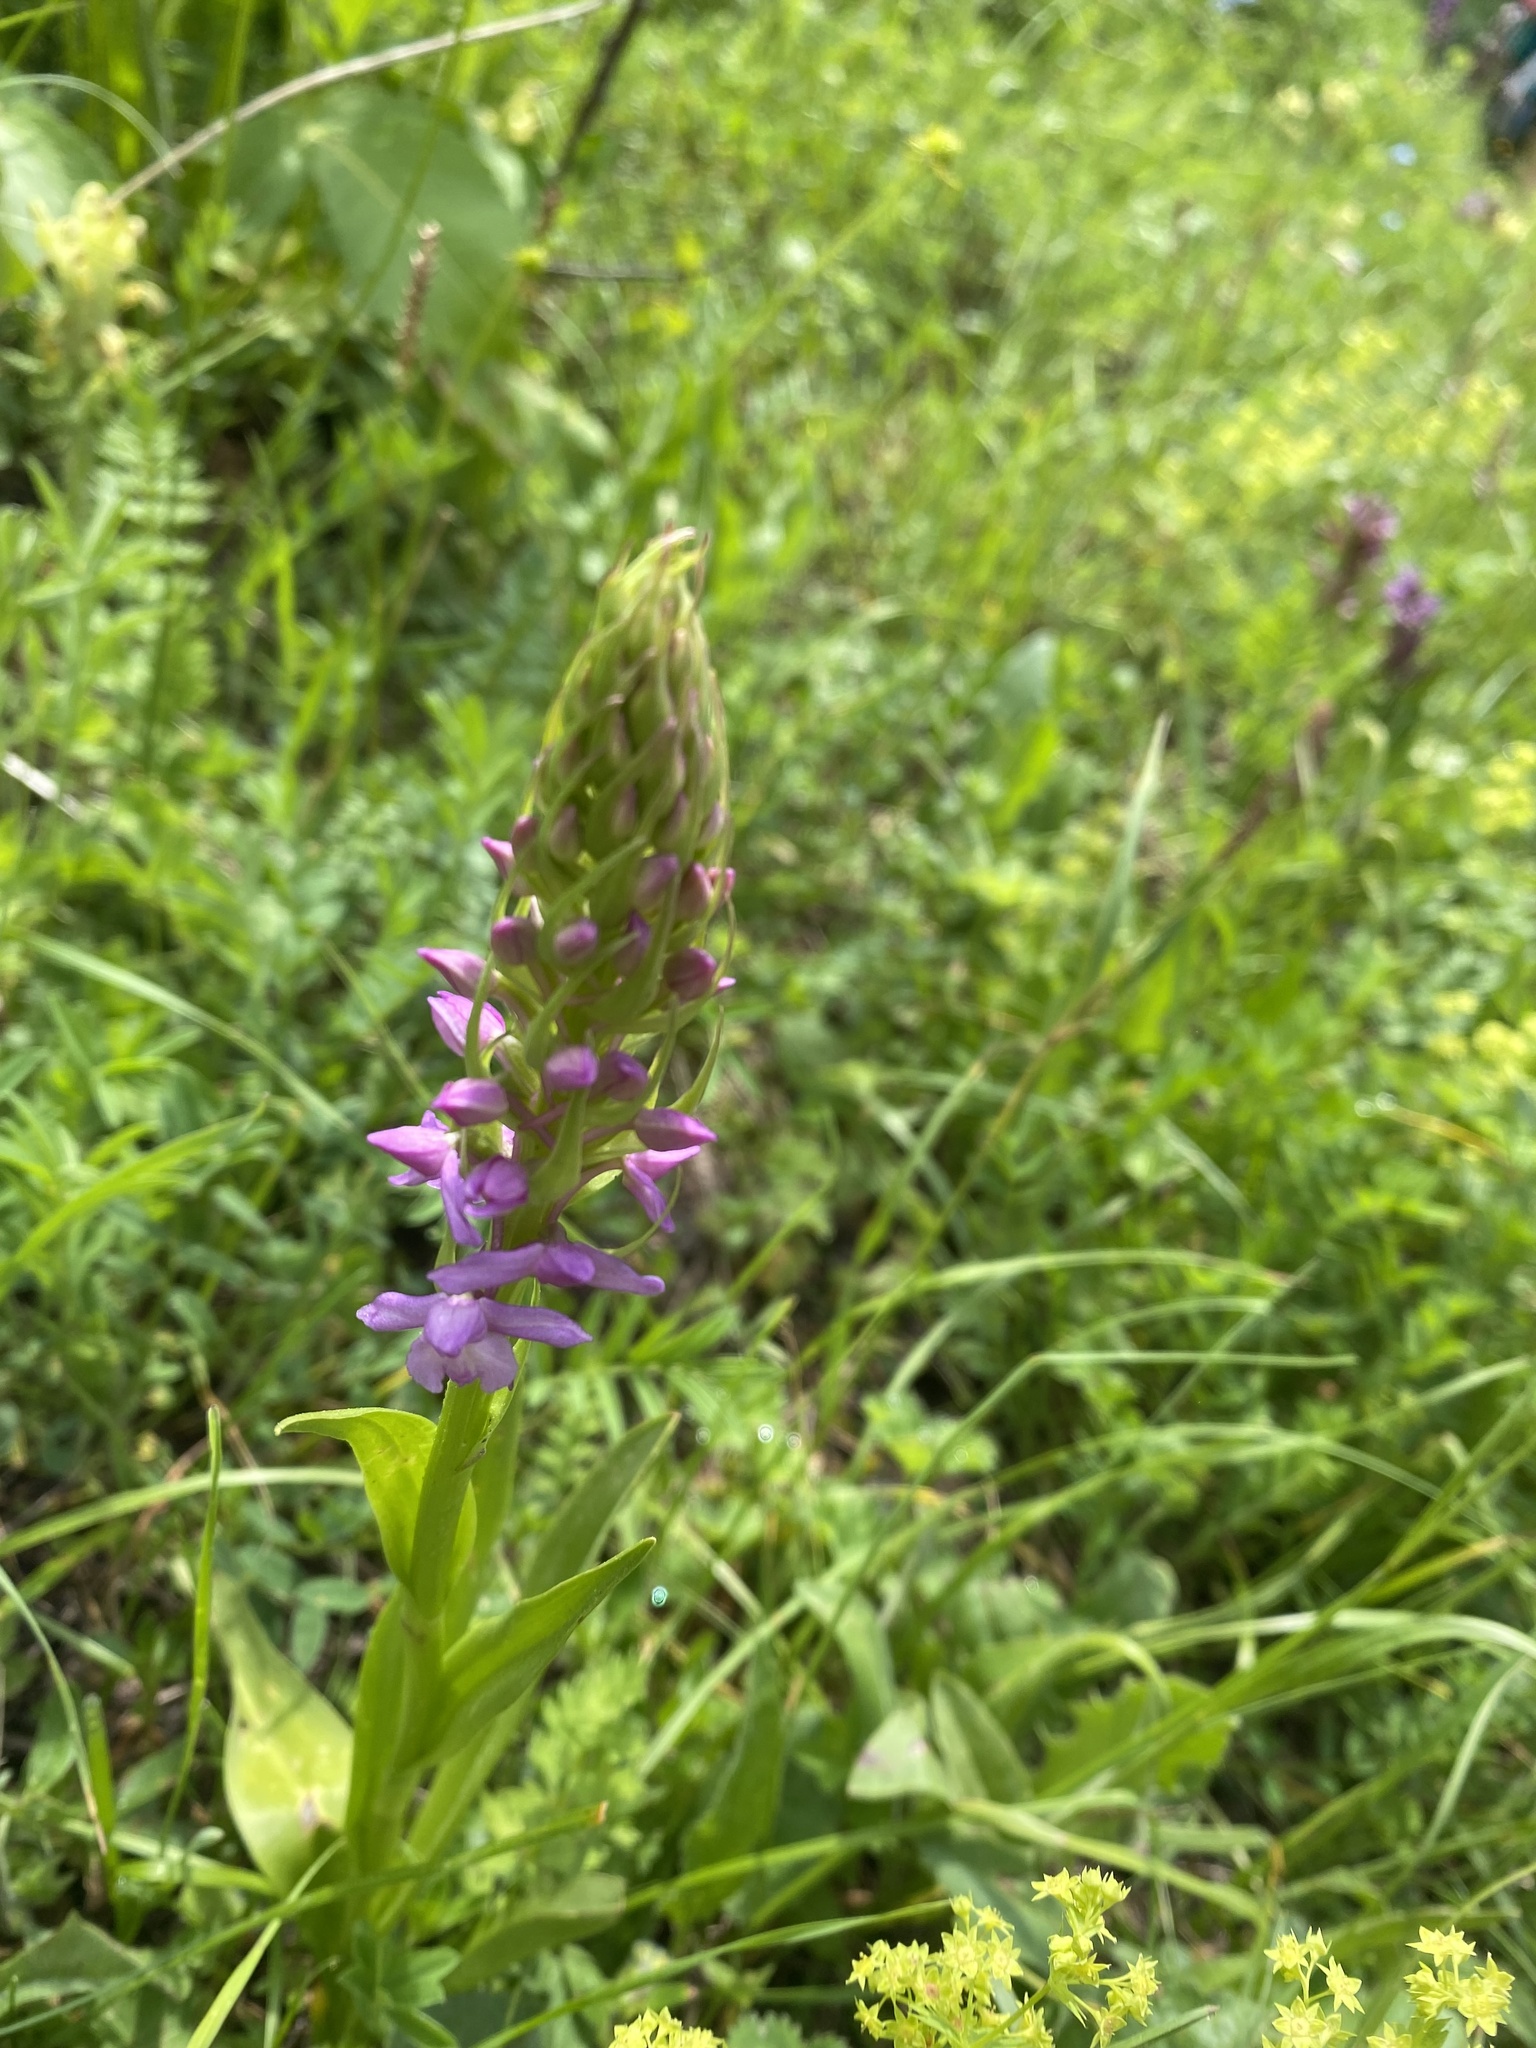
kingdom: Plantae
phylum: Tracheophyta
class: Liliopsida
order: Asparagales
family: Orchidaceae
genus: Gymnadenia
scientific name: Gymnadenia conopsea
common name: Fragrant orchid
